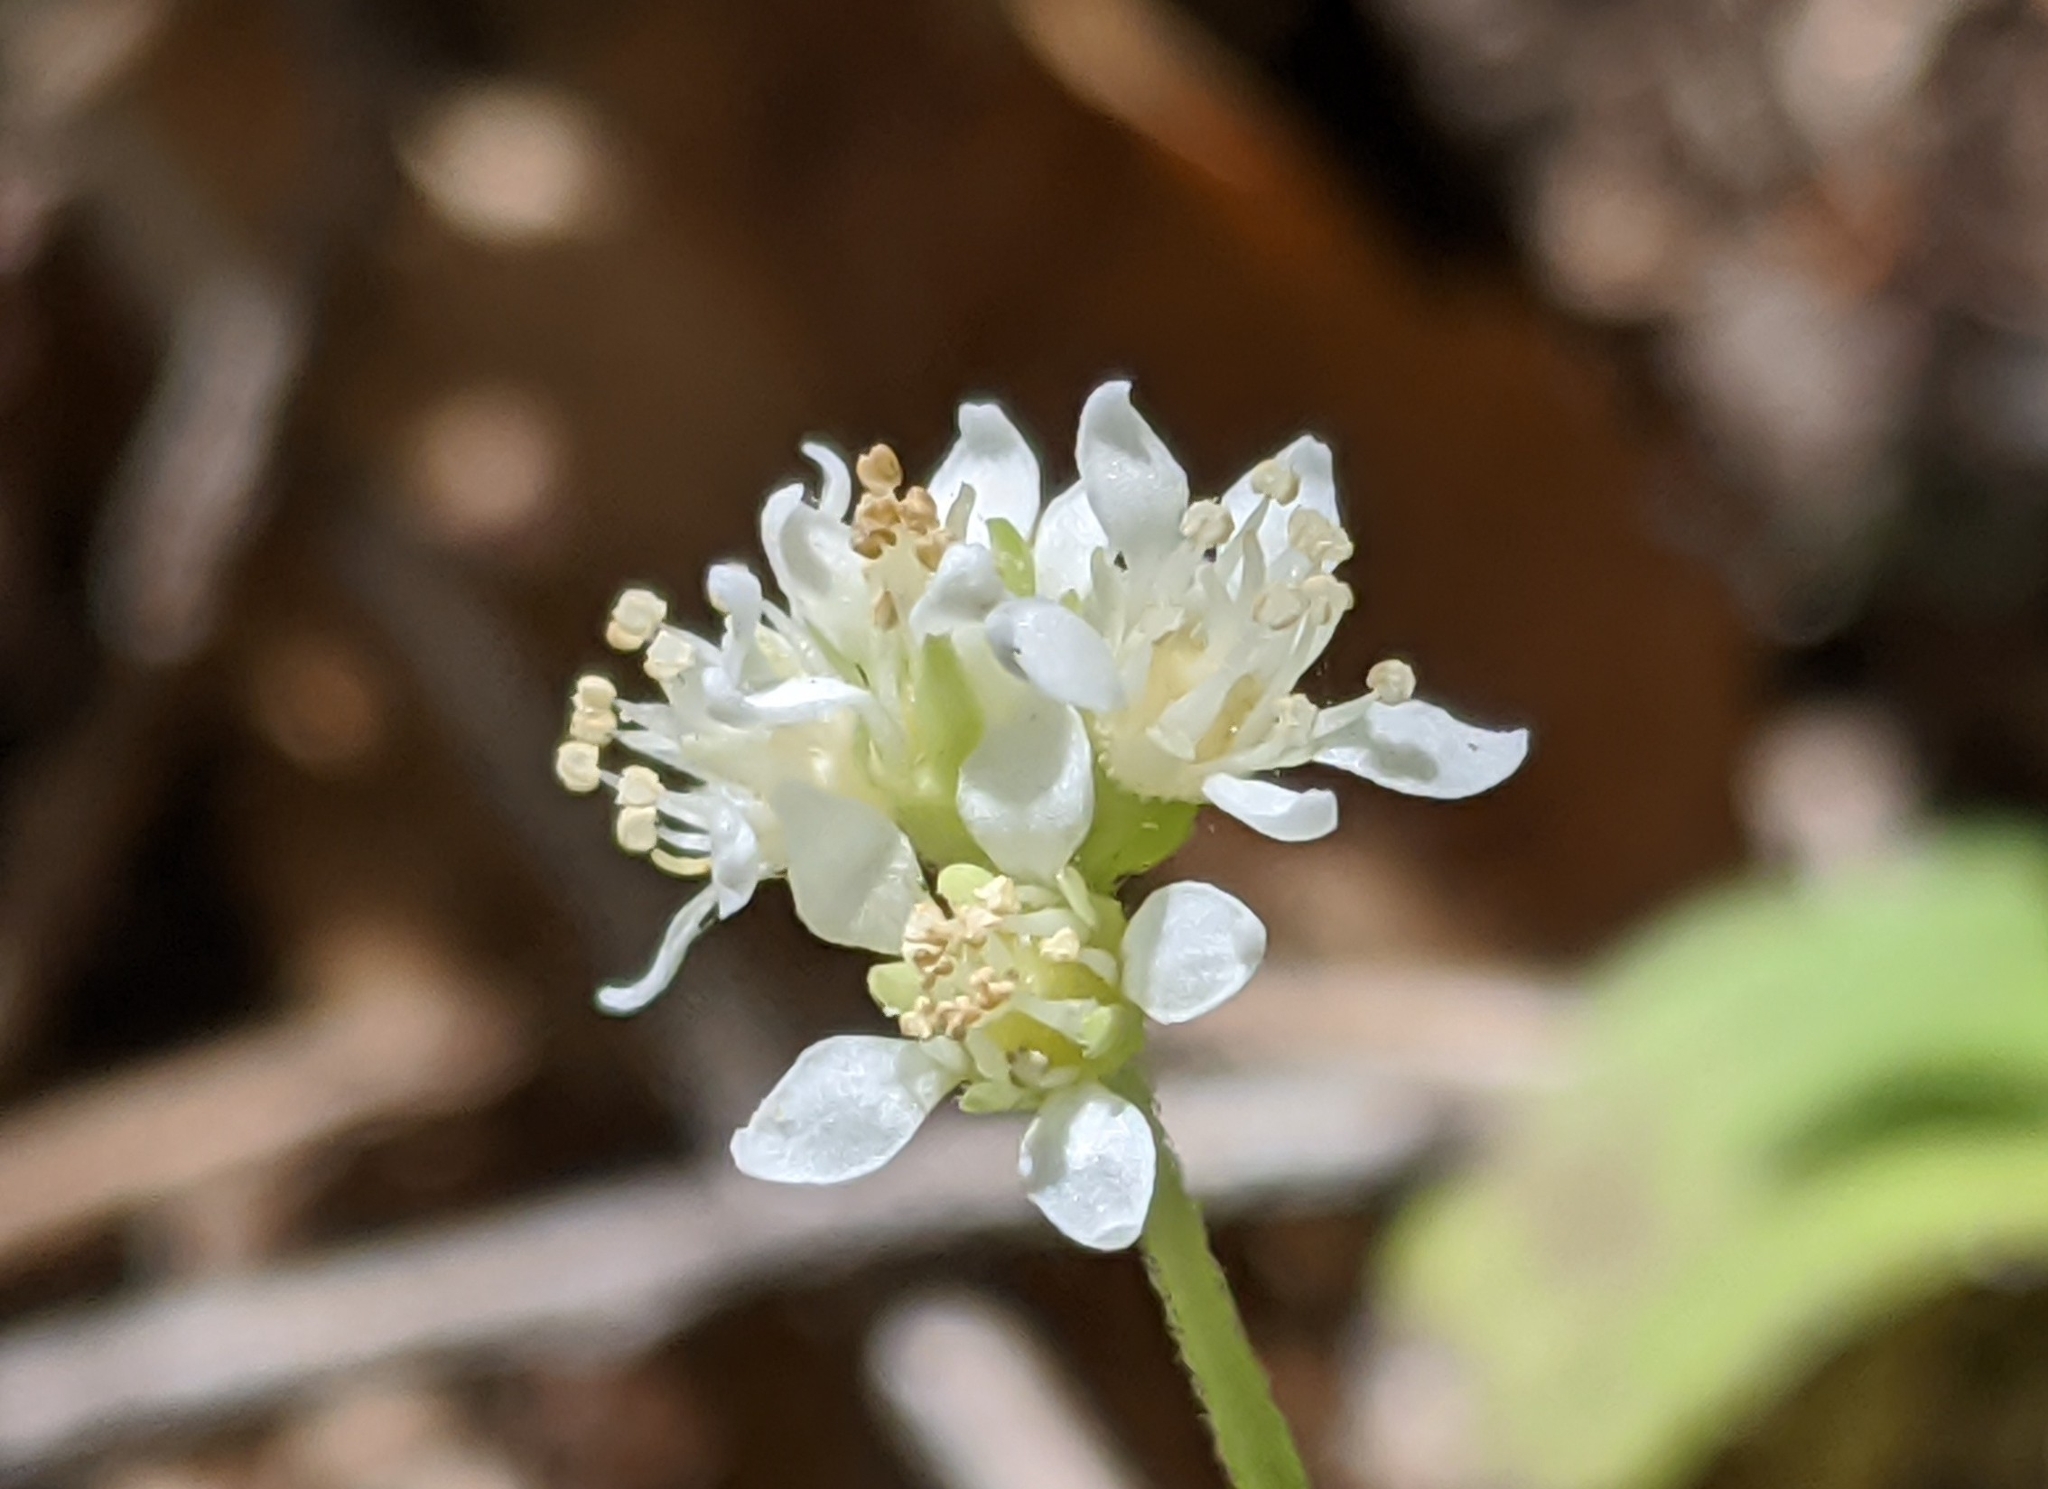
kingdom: Plantae
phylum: Tracheophyta
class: Magnoliopsida
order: Cornales
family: Hydrangeaceae
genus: Whipplea
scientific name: Whipplea modesta
